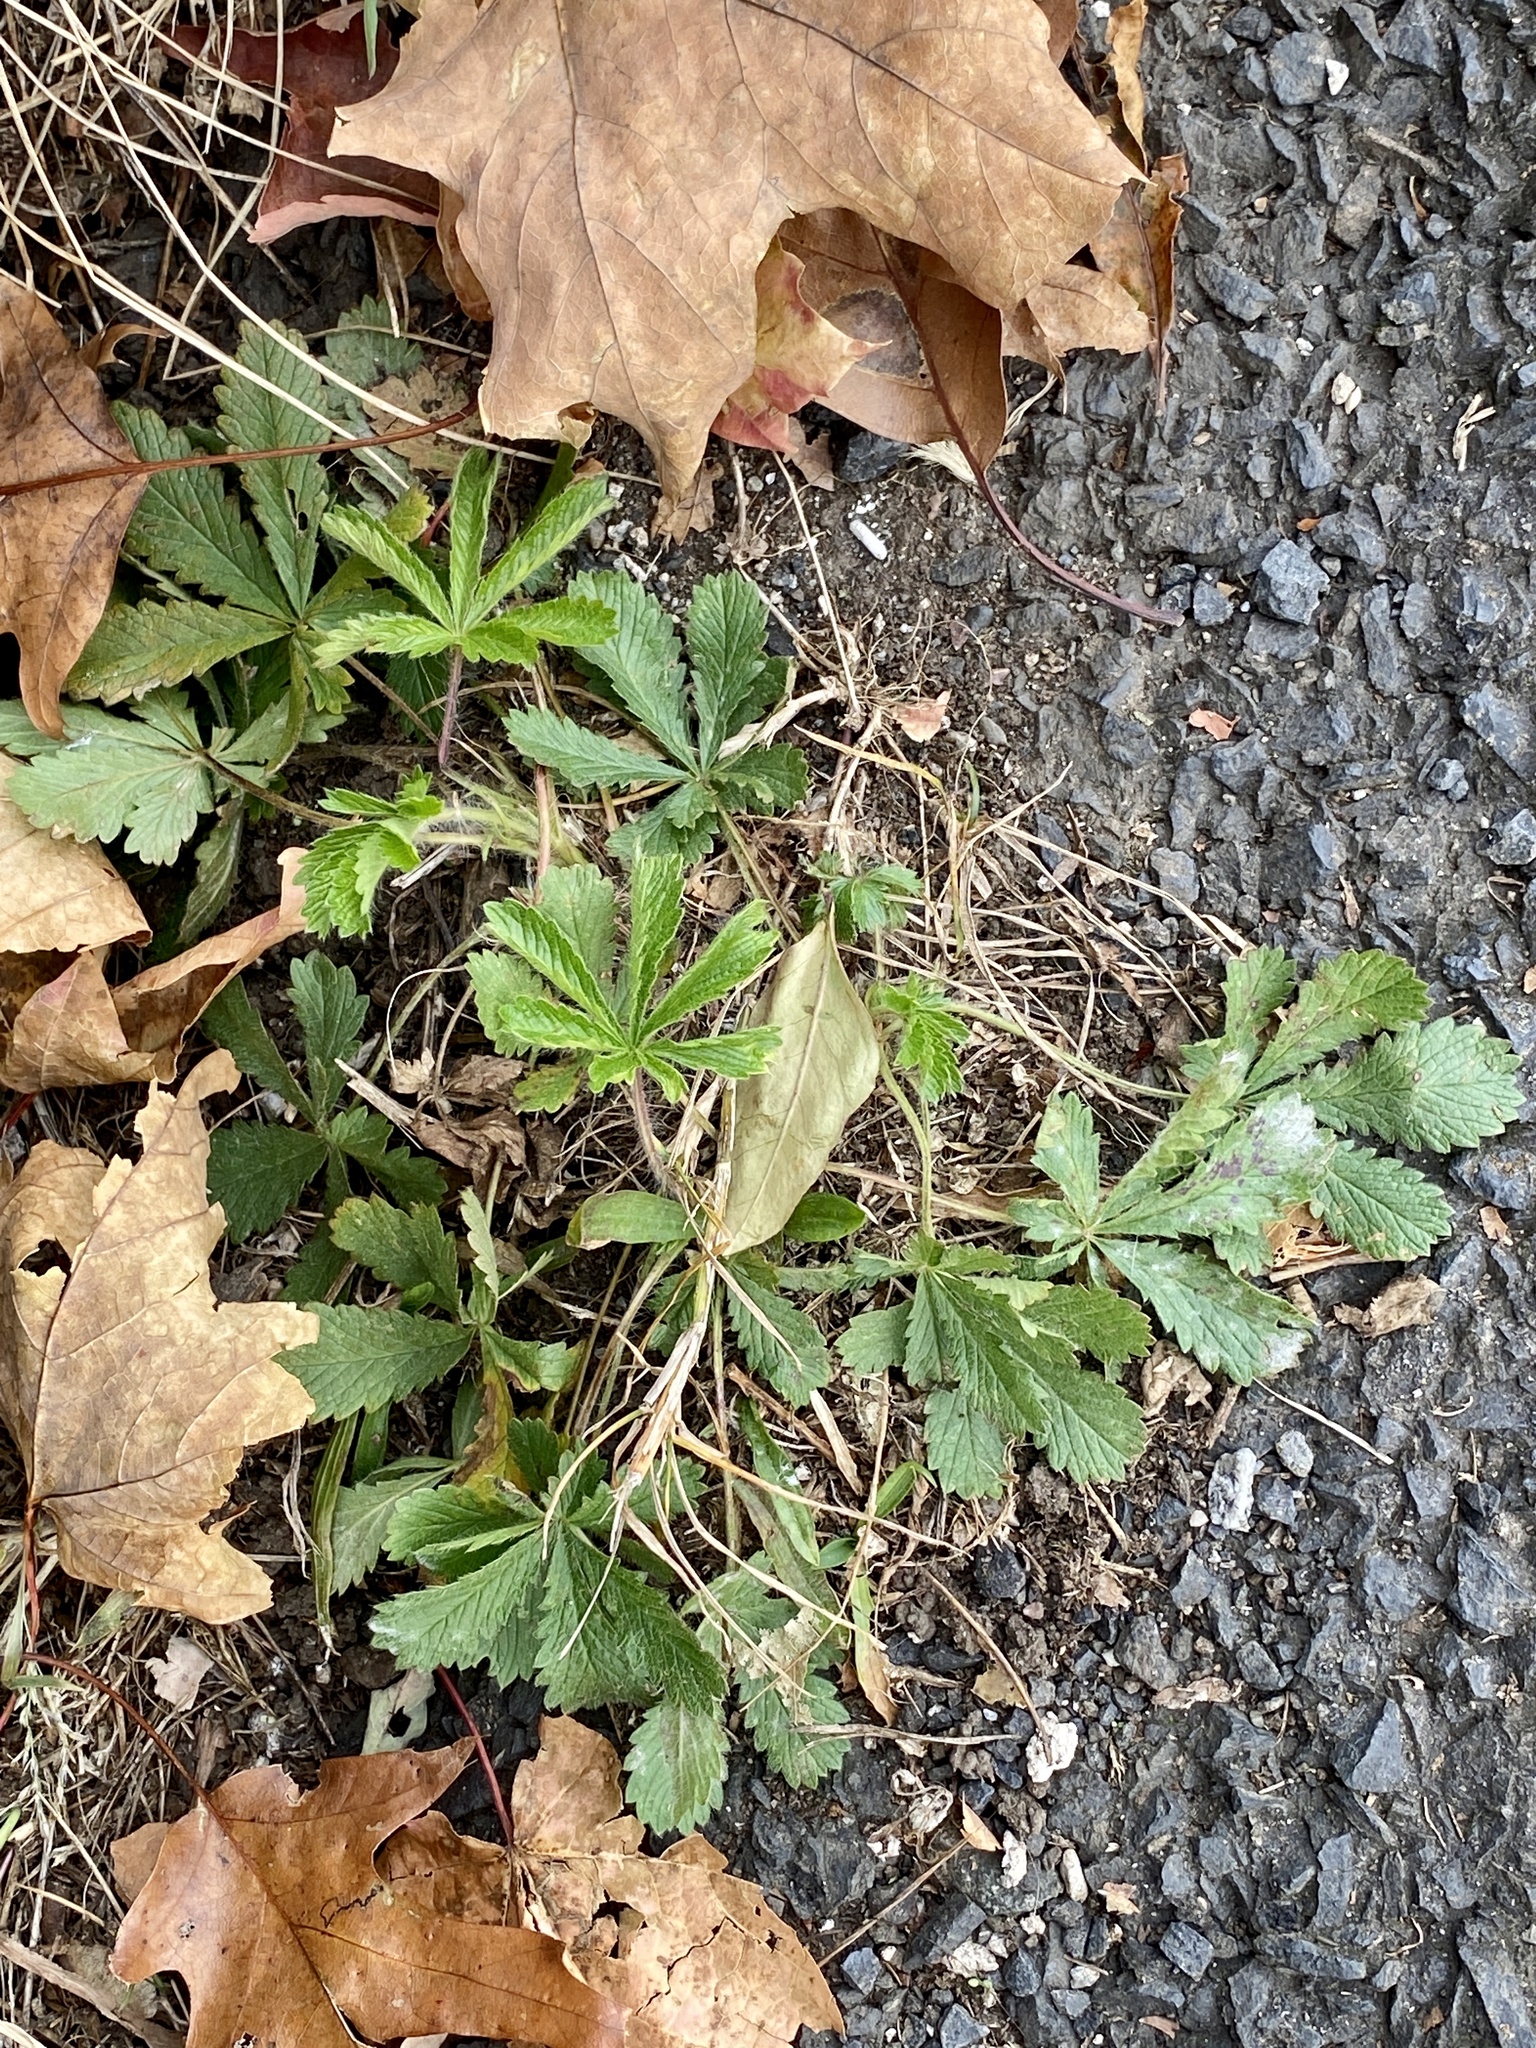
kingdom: Plantae
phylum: Tracheophyta
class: Magnoliopsida
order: Rosales
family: Rosaceae
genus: Potentilla
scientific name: Potentilla recta
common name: Sulphur cinquefoil
